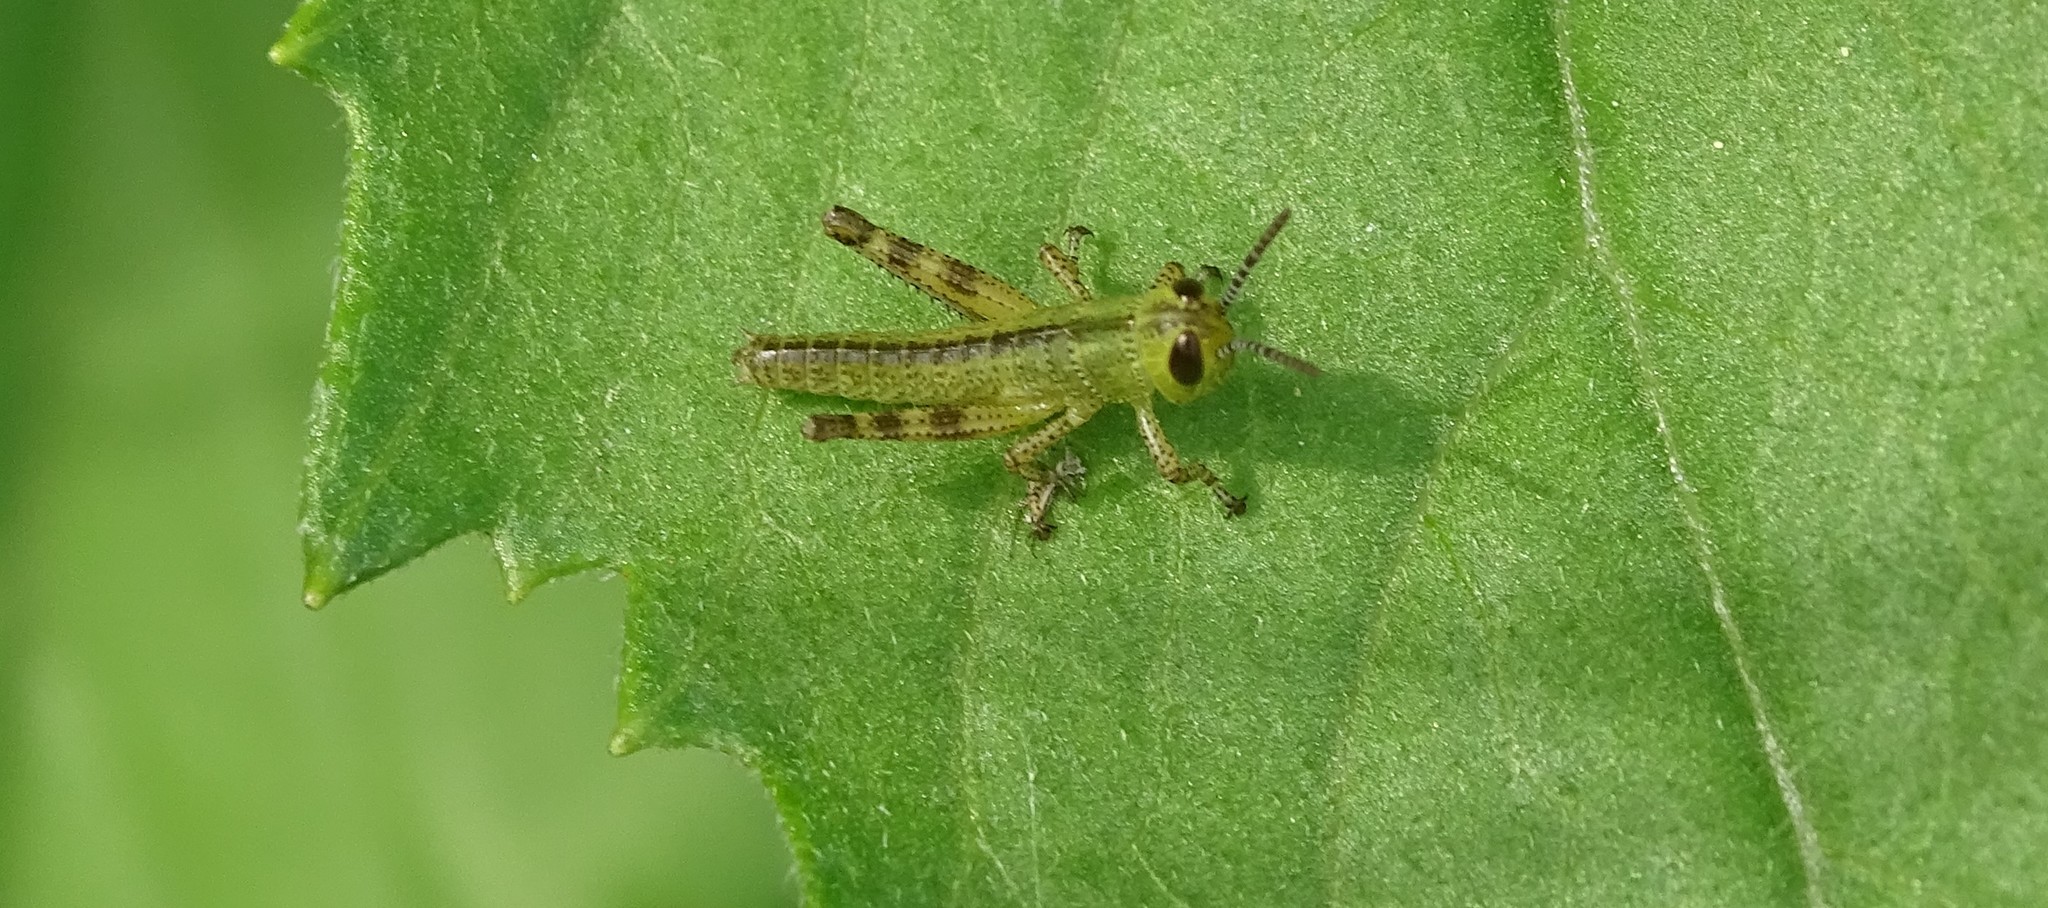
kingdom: Animalia
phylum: Arthropoda
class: Insecta
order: Orthoptera
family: Acrididae
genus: Schistocerca
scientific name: Schistocerca americana
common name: American bird locust
